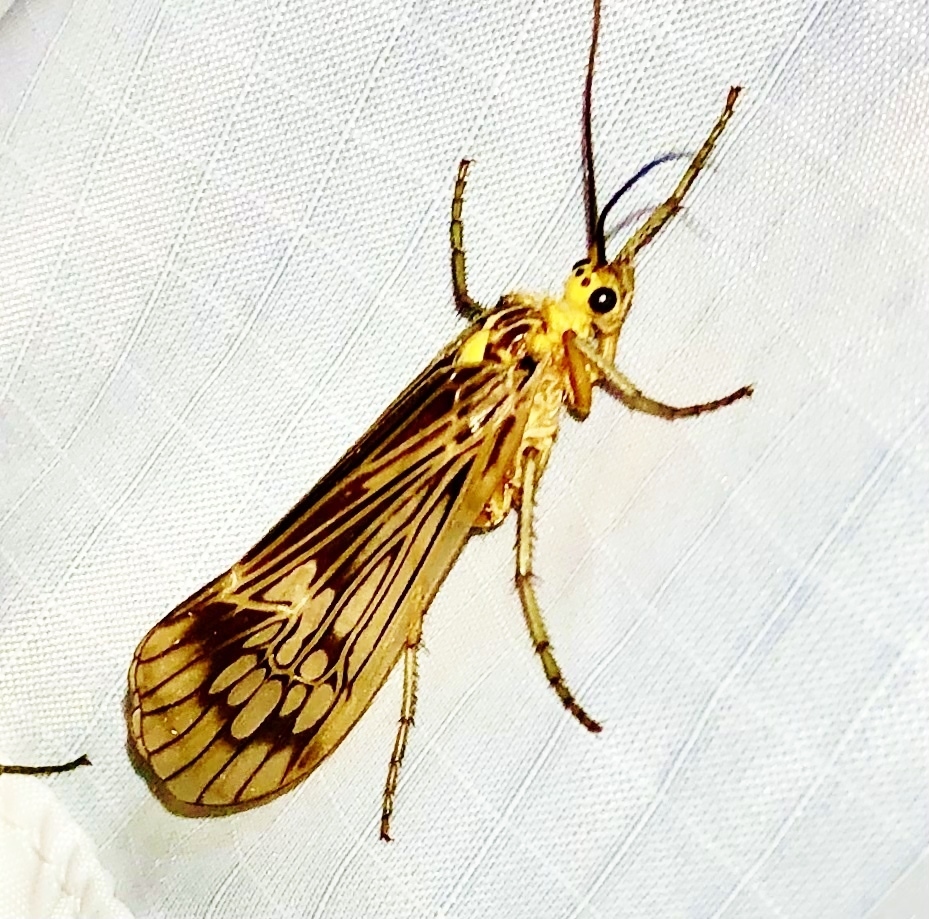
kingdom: Animalia
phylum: Arthropoda
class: Insecta
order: Trichoptera
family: Limnephilidae
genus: Hydatophylax
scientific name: Hydatophylax argus
